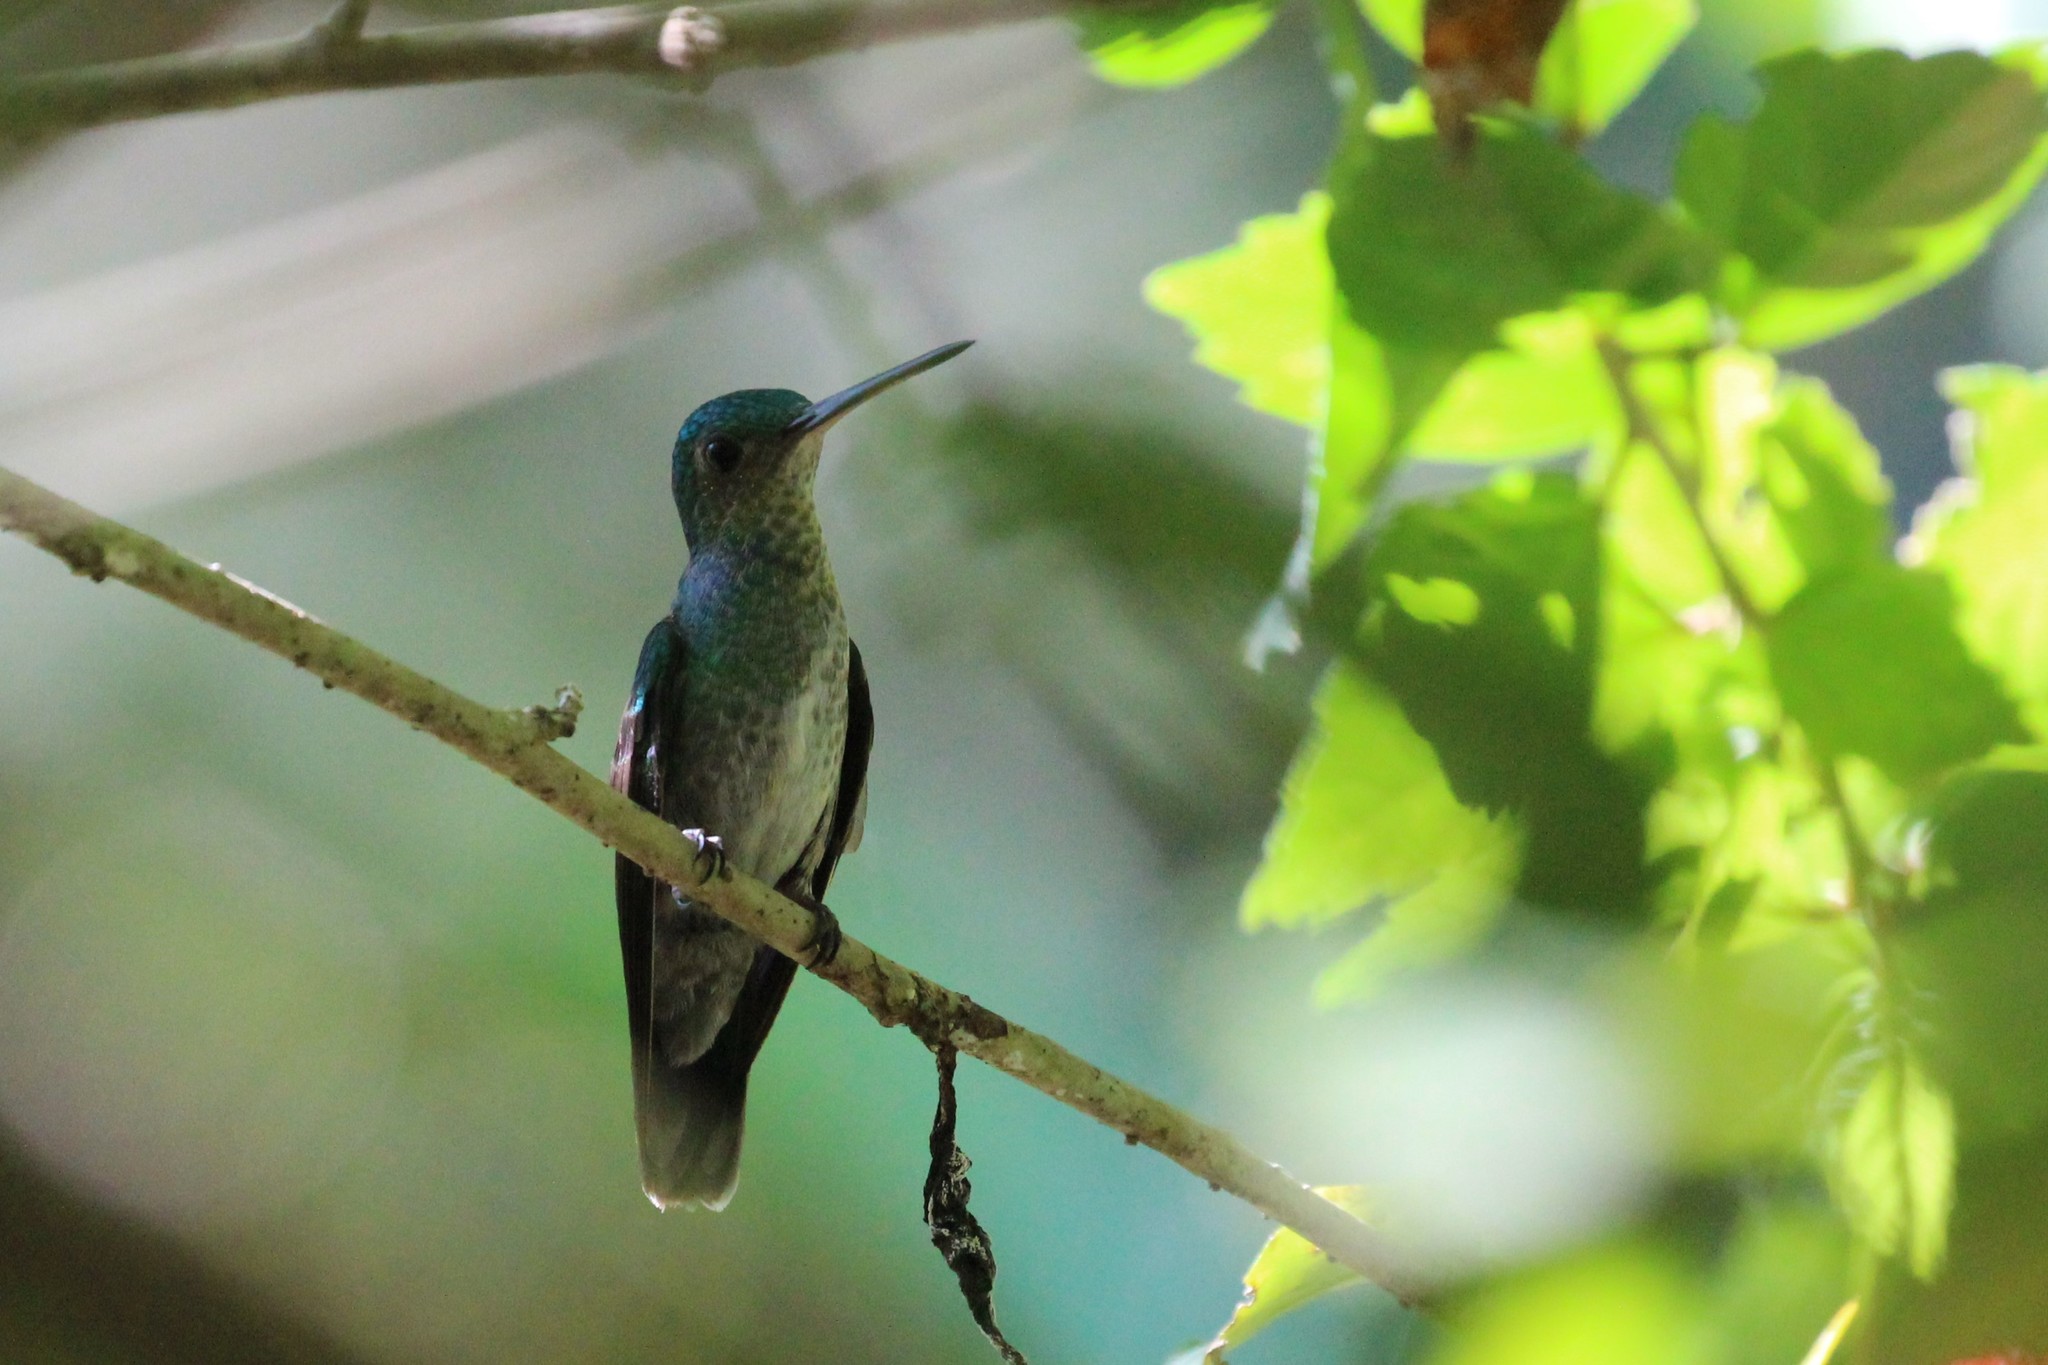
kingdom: Animalia
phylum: Chordata
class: Aves
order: Apodiformes
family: Trochilidae
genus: Polyerata
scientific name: Polyerata decora
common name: Charming hummingbird
